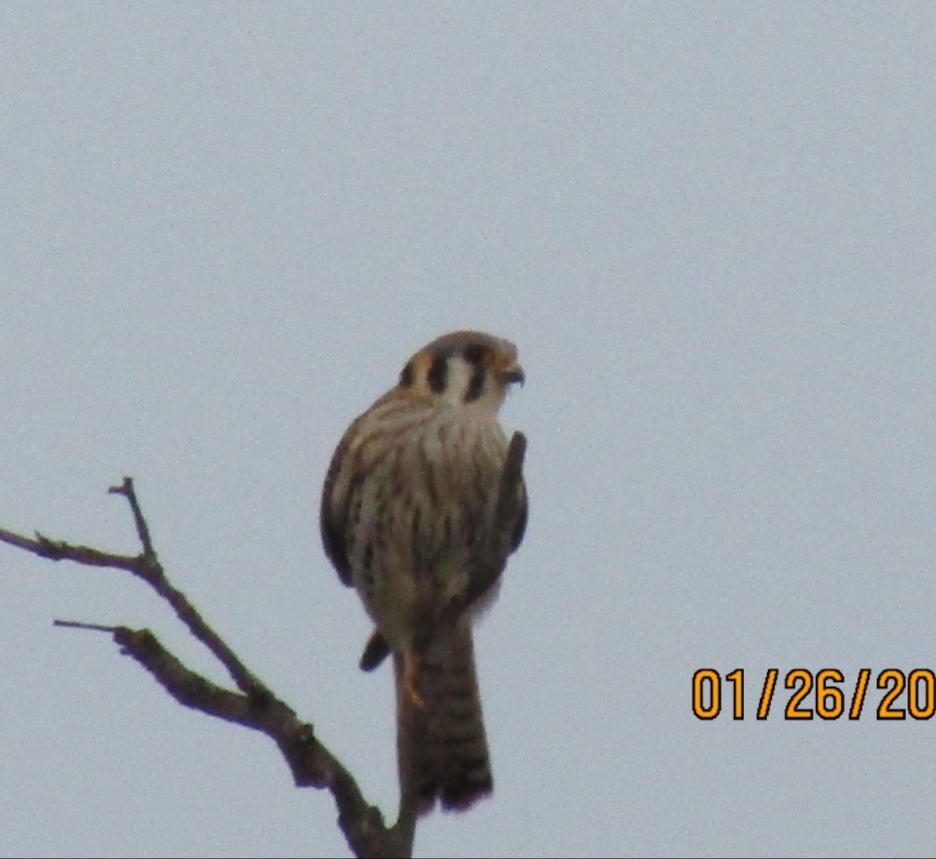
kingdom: Animalia
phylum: Chordata
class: Aves
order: Falconiformes
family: Falconidae
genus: Falco
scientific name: Falco sparverius
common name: American kestrel
